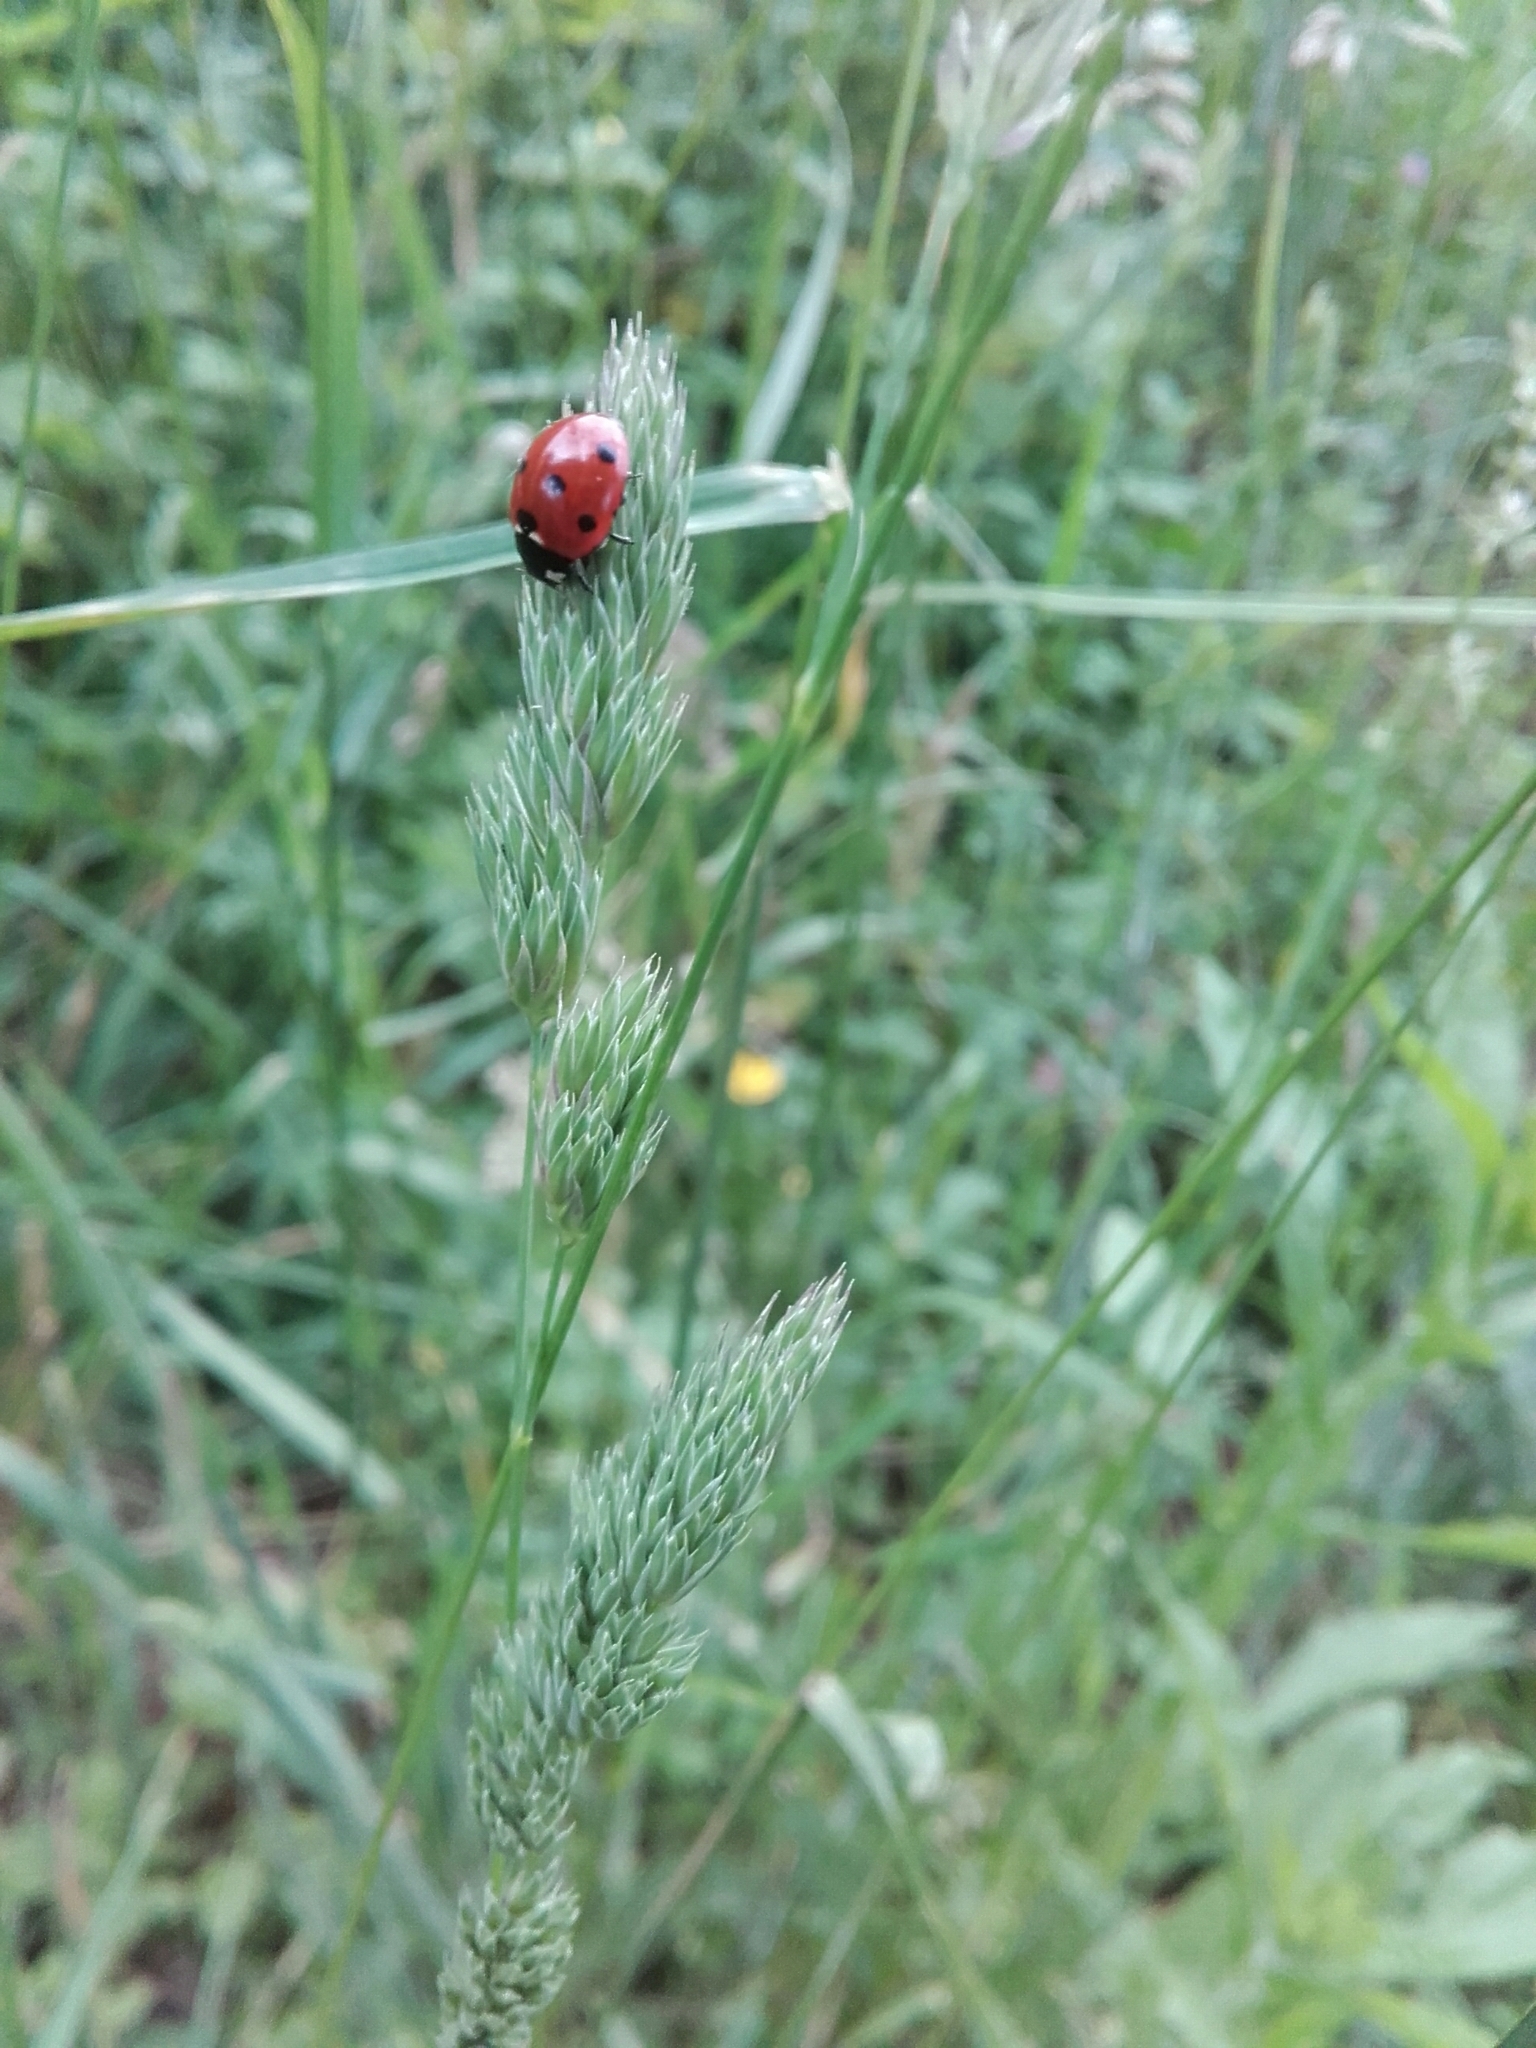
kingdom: Animalia
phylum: Arthropoda
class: Insecta
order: Coleoptera
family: Coccinellidae
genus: Coccinella
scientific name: Coccinella septempunctata
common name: Sevenspotted lady beetle
